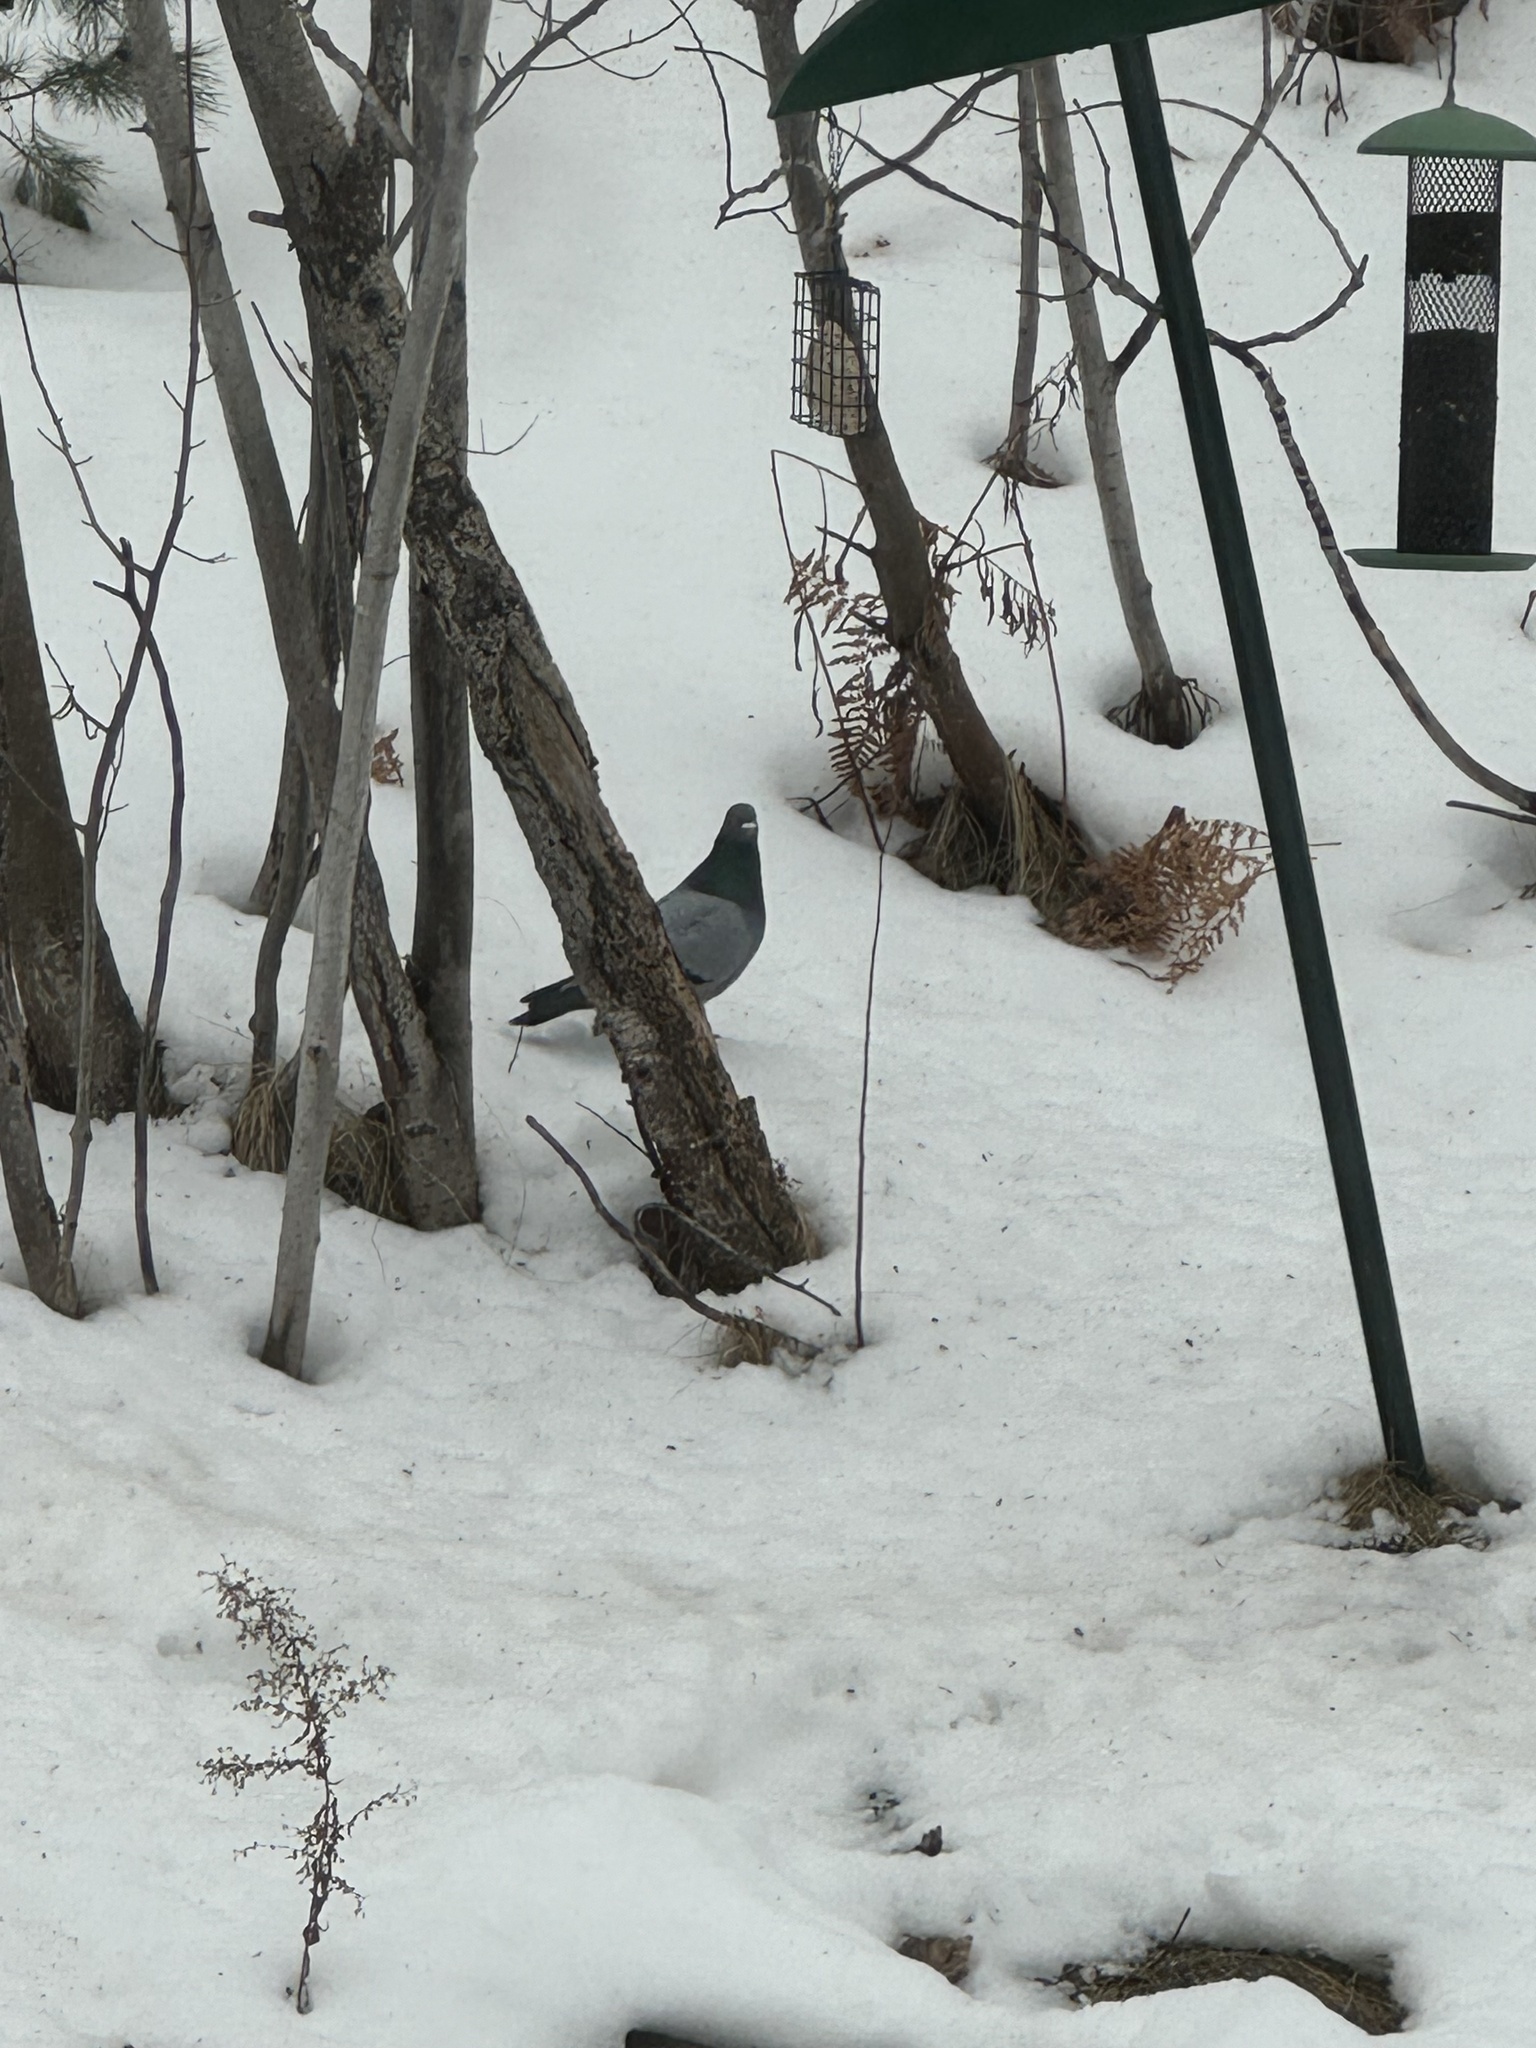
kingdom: Animalia
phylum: Chordata
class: Aves
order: Columbiformes
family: Columbidae
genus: Columba
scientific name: Columba livia
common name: Rock pigeon
